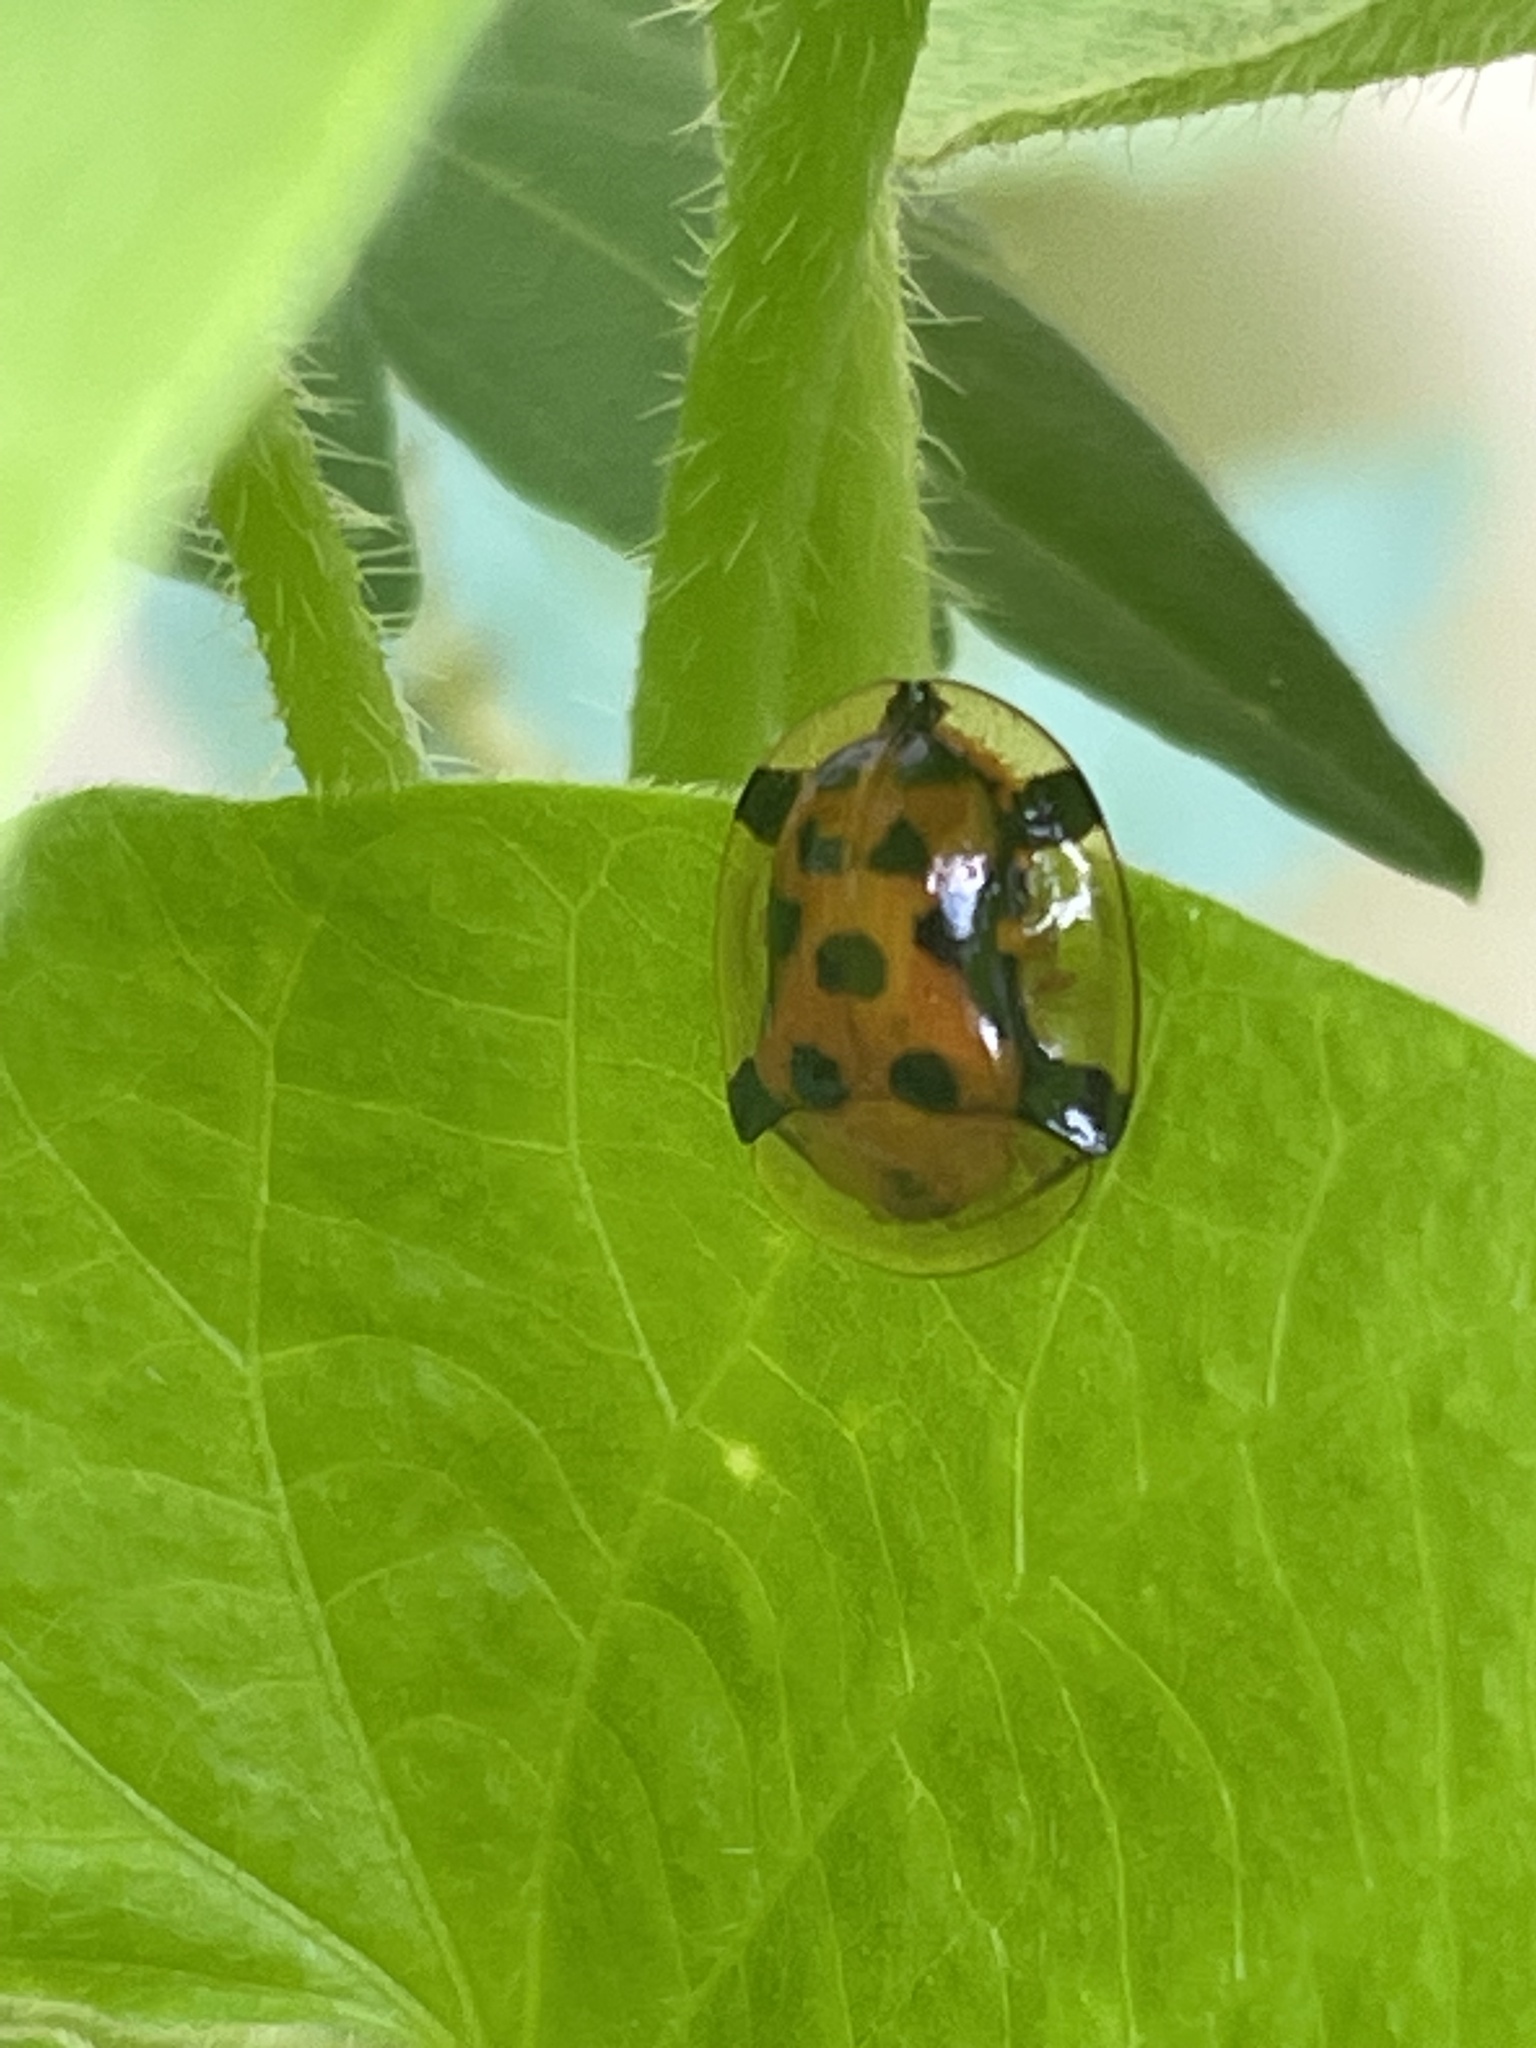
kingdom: Animalia
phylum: Arthropoda
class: Insecta
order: Coleoptera
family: Chrysomelidae
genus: Aspidimorpha
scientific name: Aspidimorpha westwoodii
